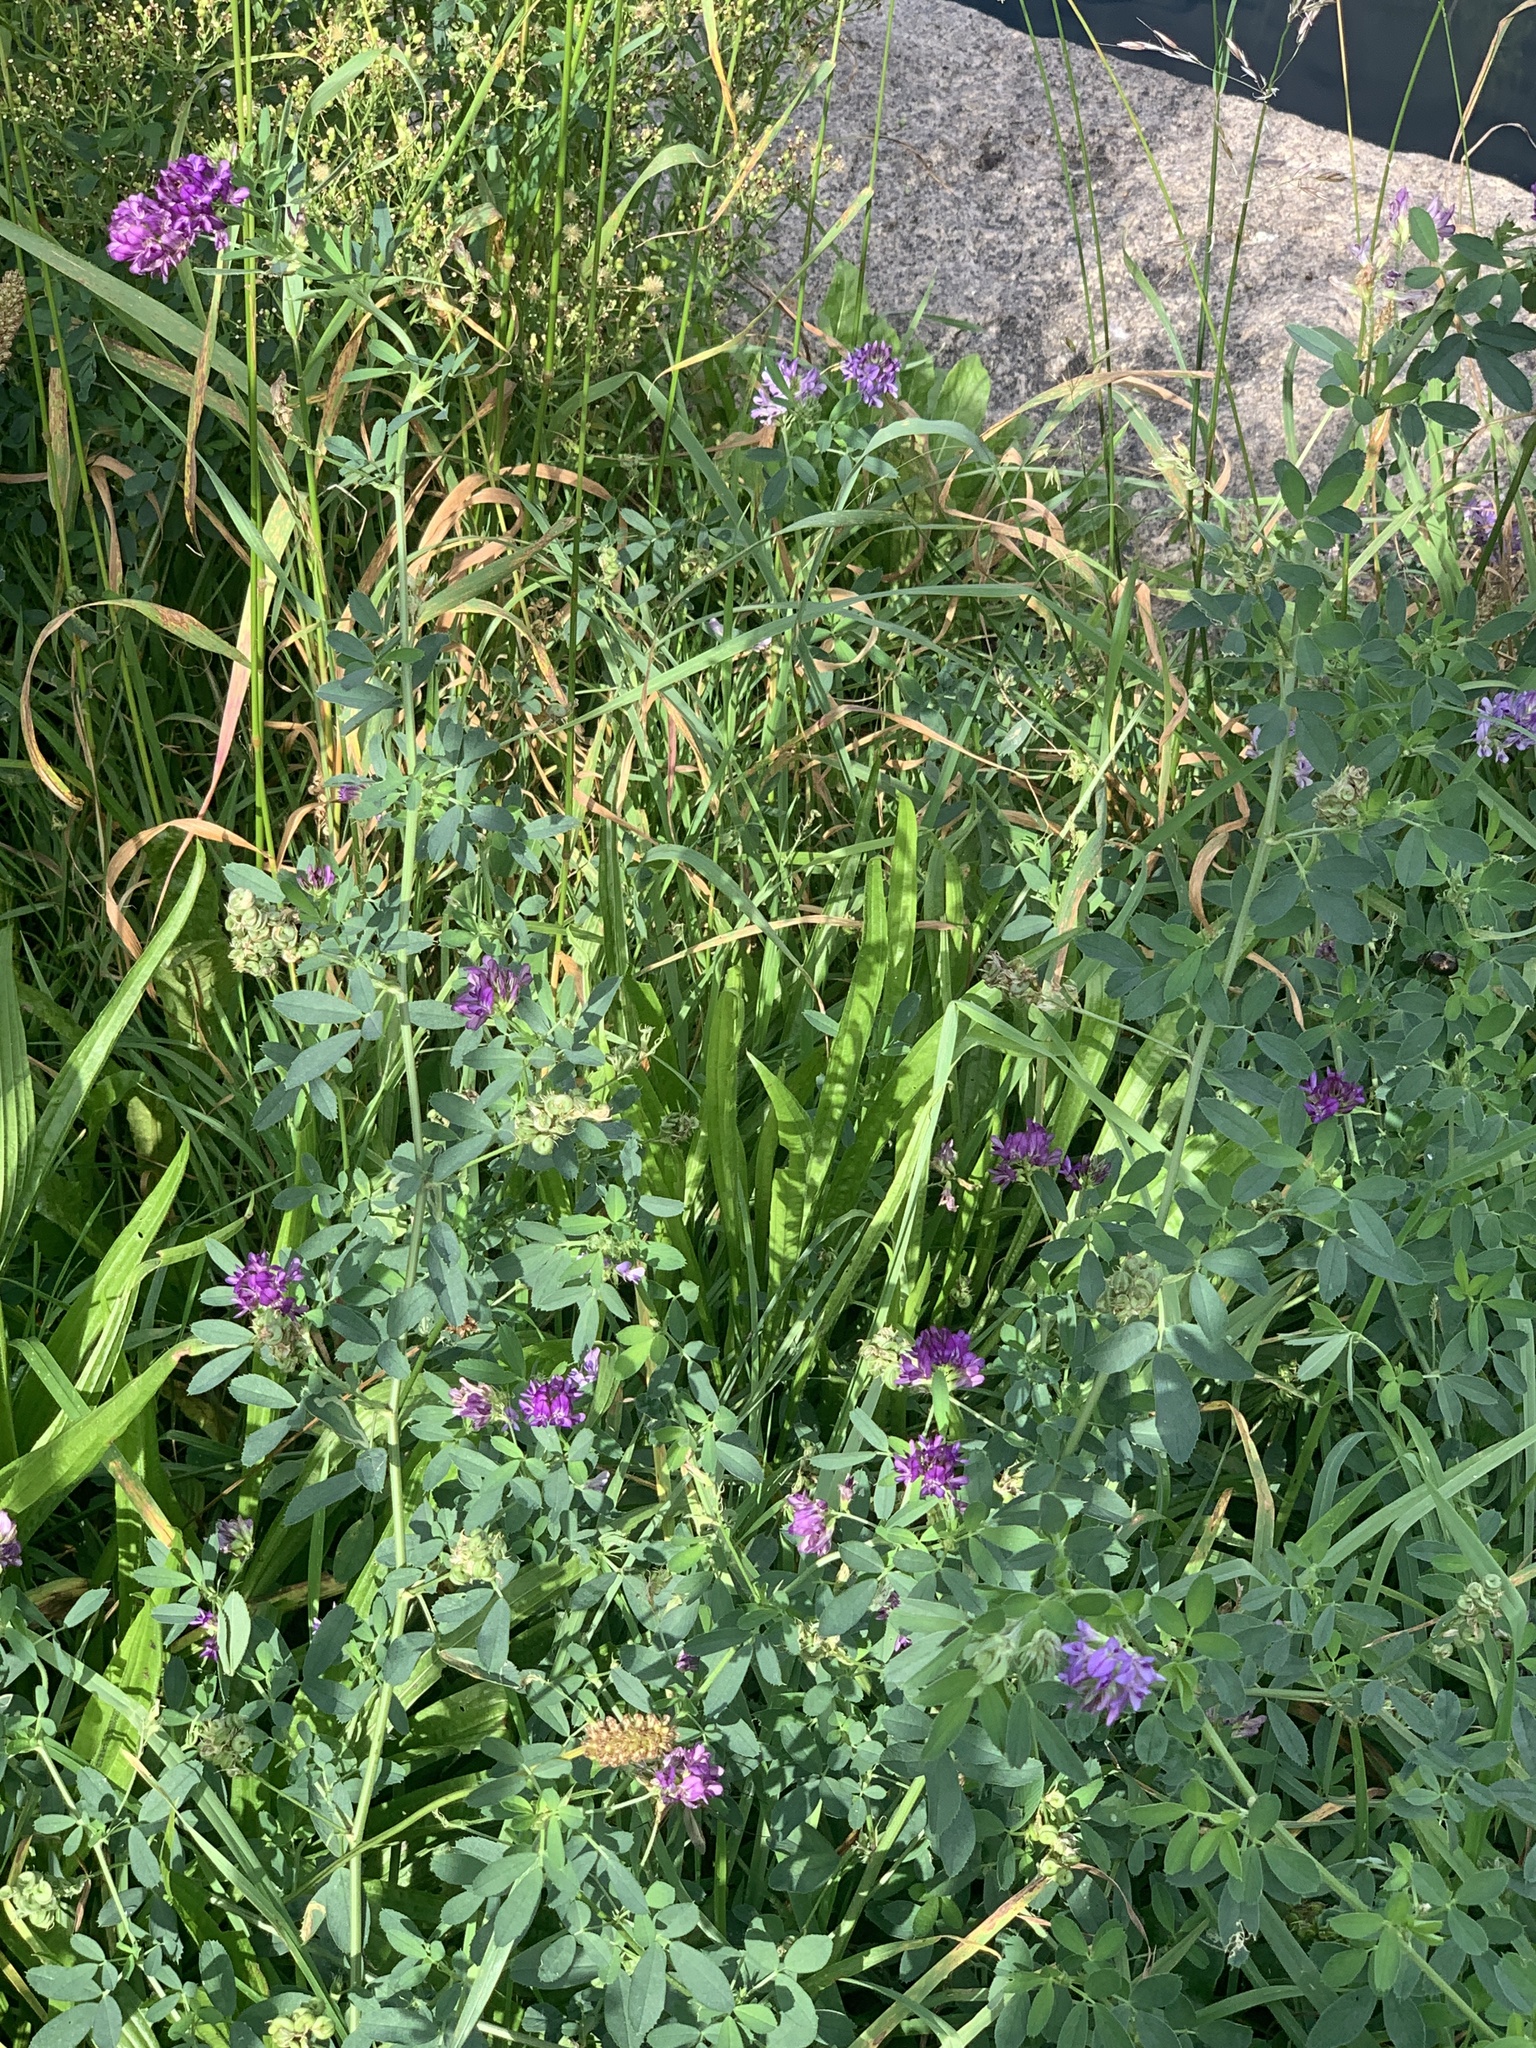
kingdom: Plantae
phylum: Tracheophyta
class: Magnoliopsida
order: Fabales
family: Fabaceae
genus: Medicago
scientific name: Medicago sativa
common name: Alfalfa
